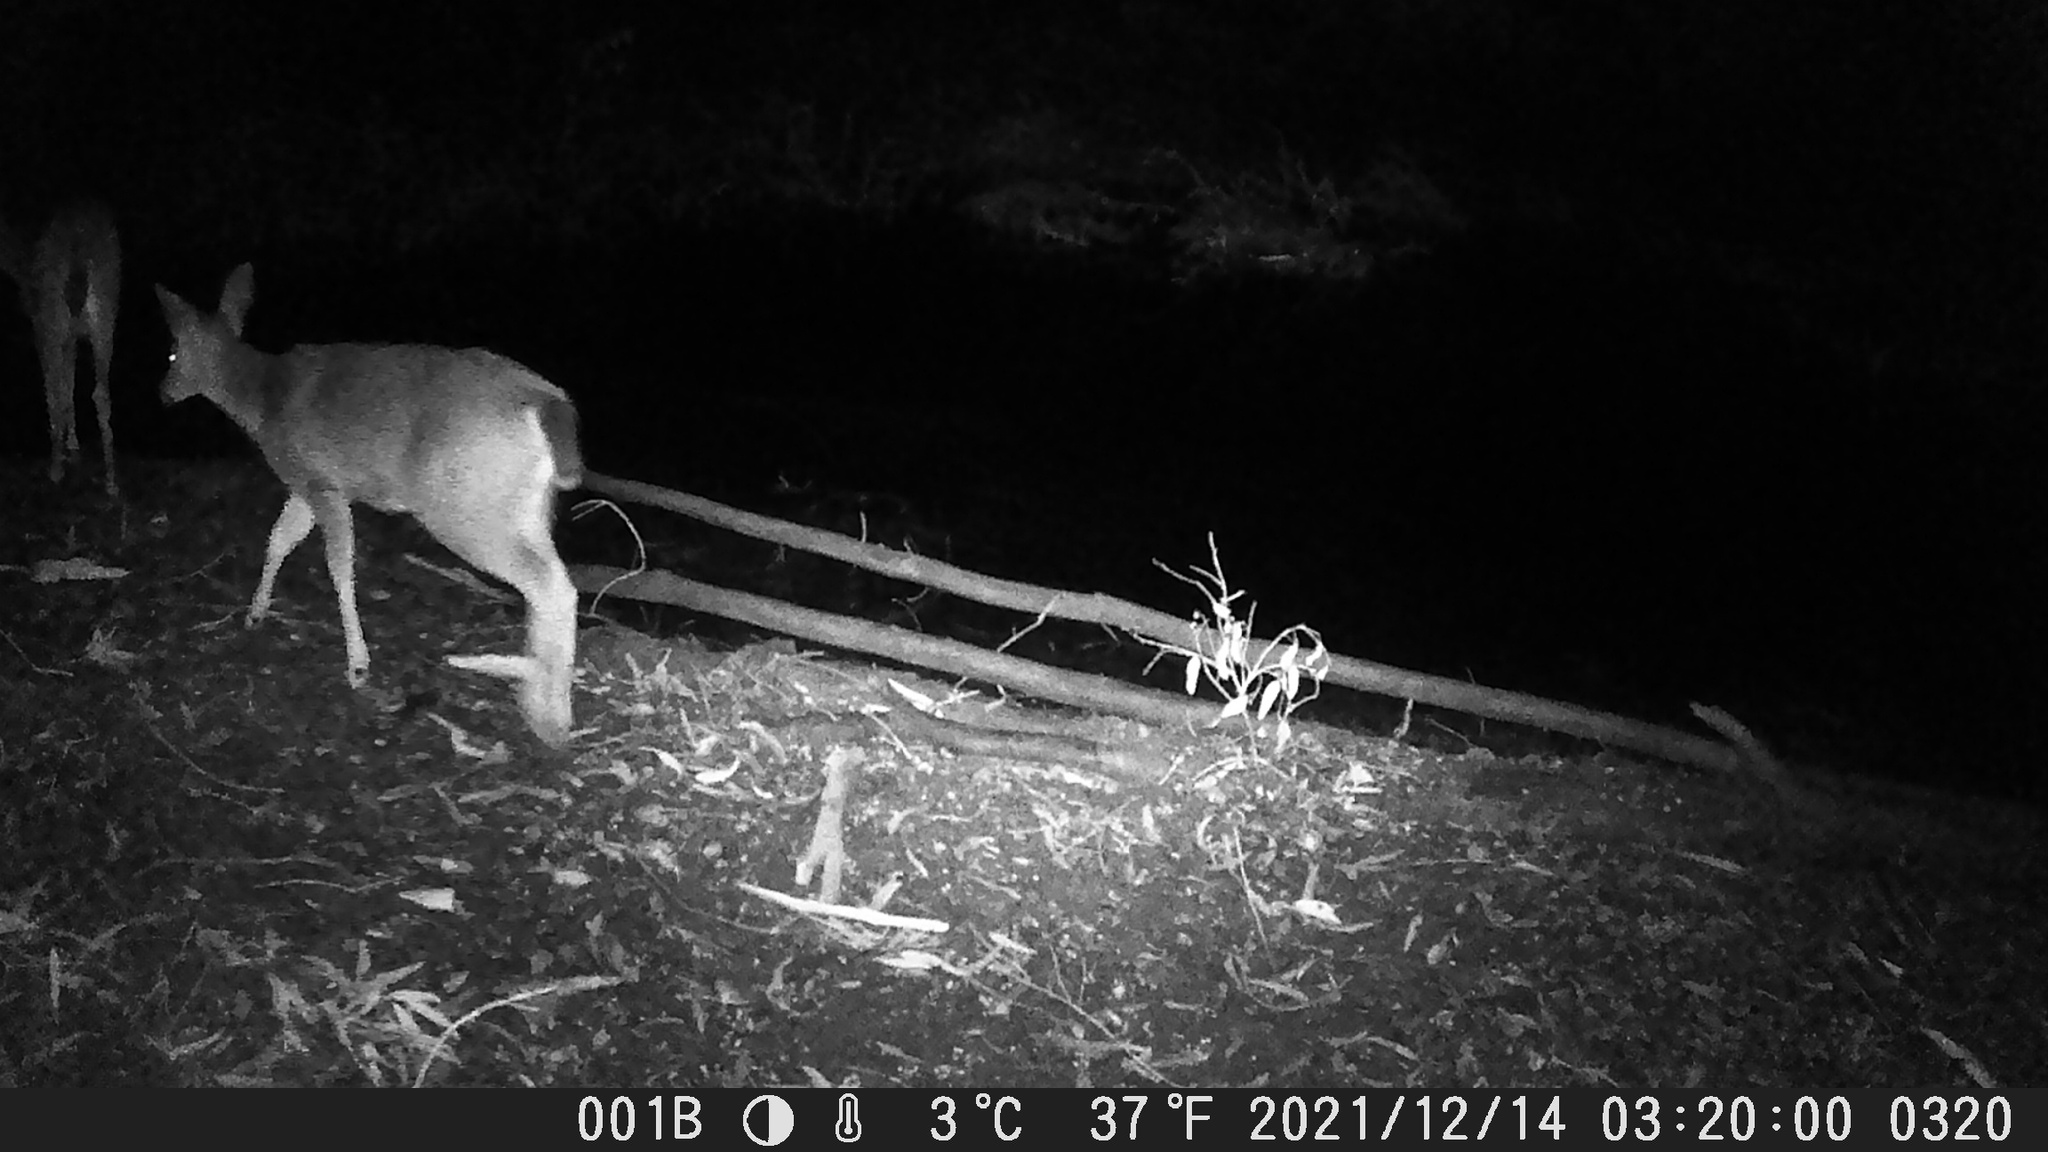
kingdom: Animalia
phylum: Chordata
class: Mammalia
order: Artiodactyla
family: Cervidae
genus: Odocoileus
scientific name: Odocoileus hemionus
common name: Mule deer
